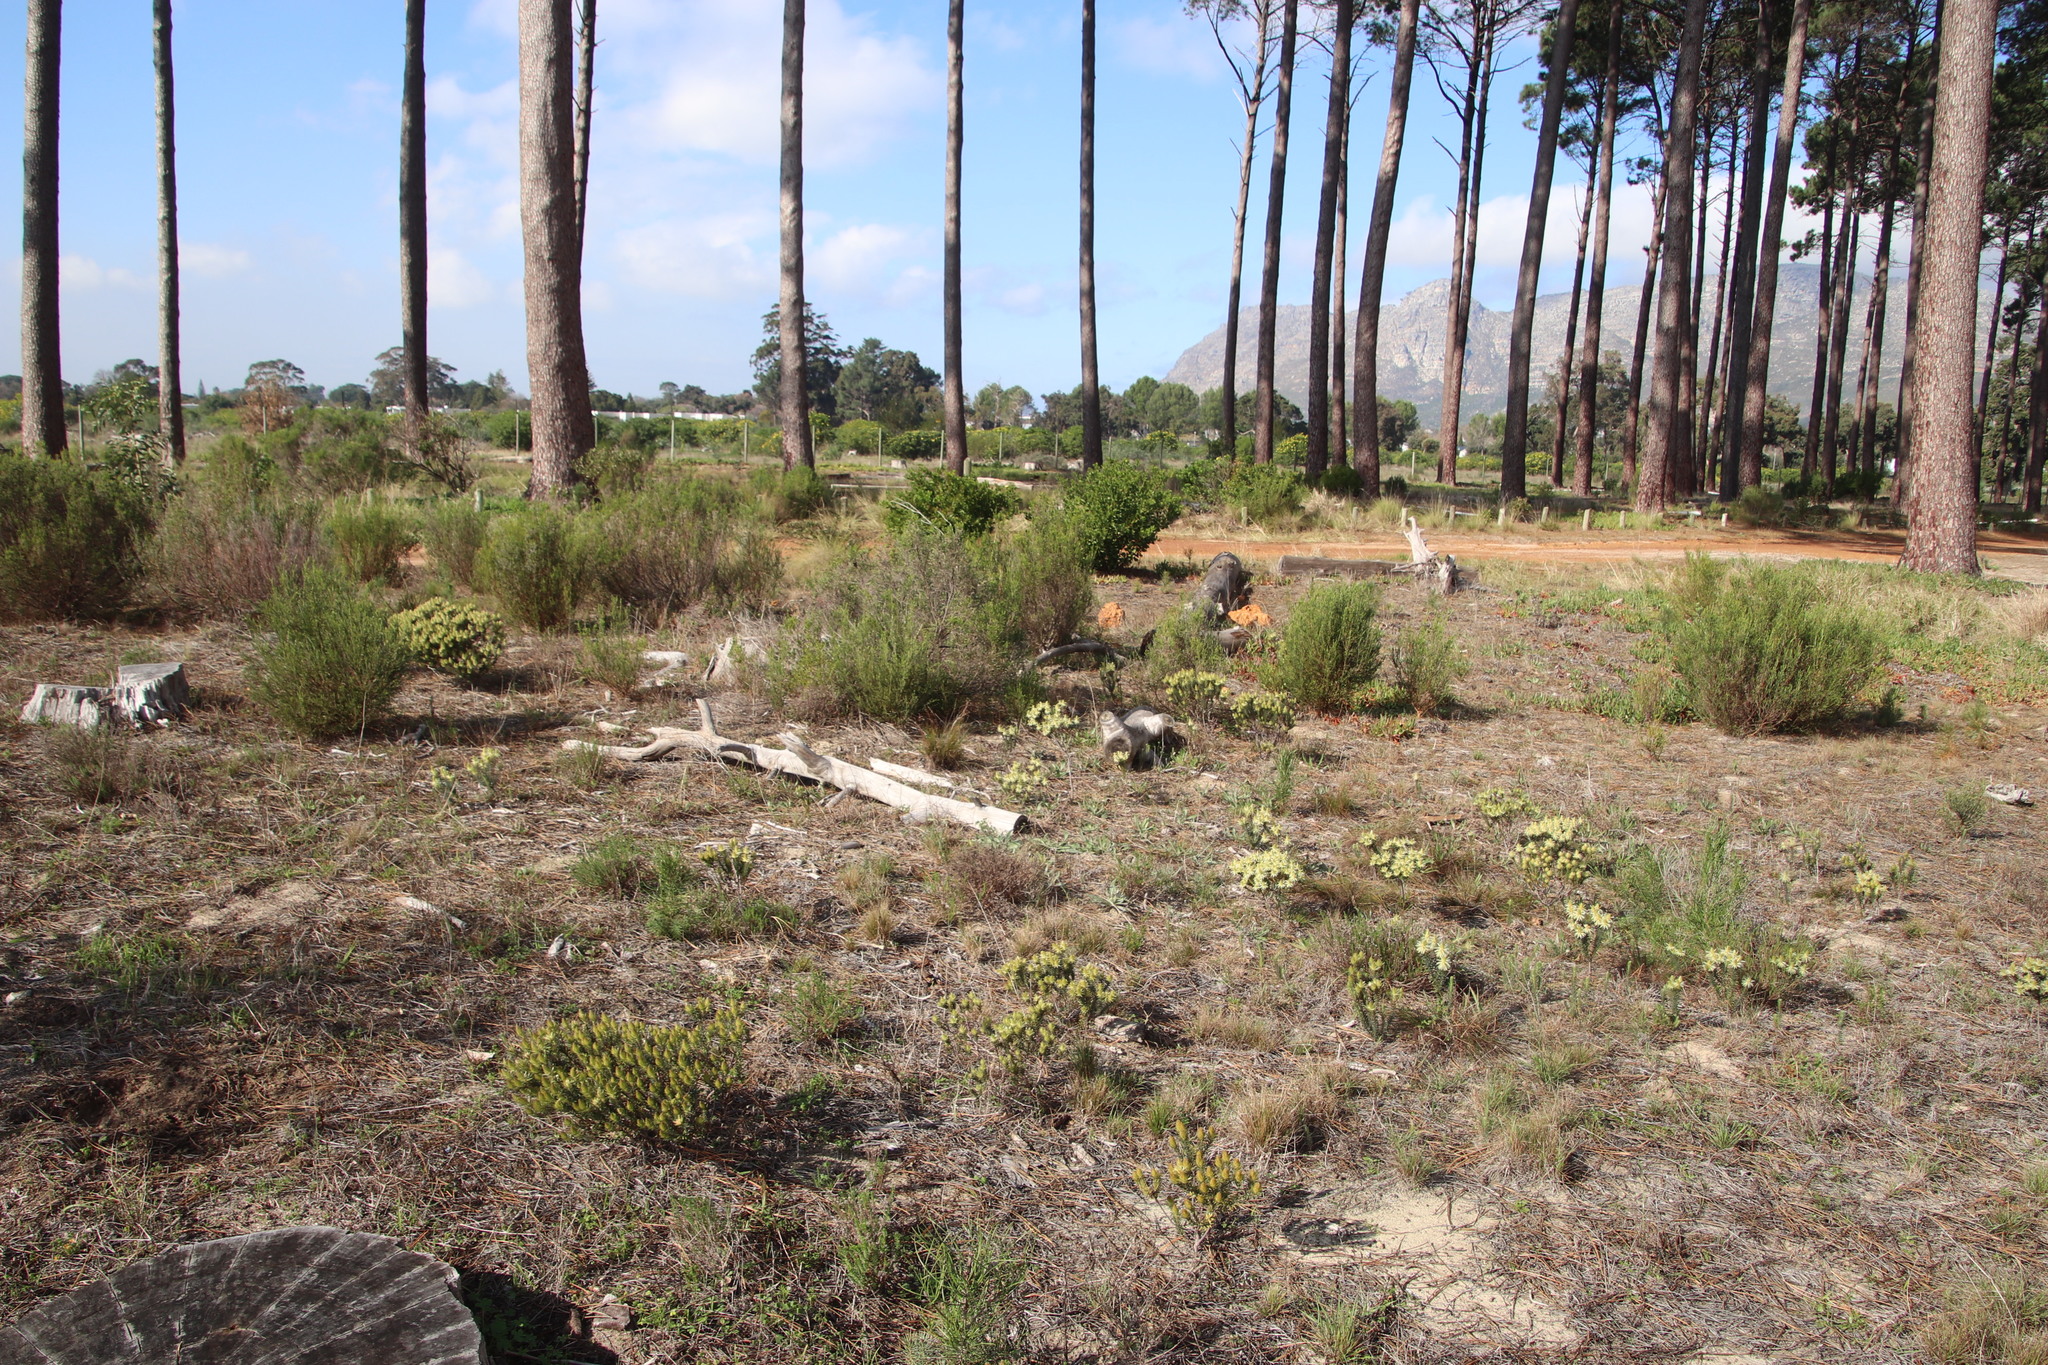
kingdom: Plantae
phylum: Tracheophyta
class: Magnoliopsida
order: Rosales
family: Rhamnaceae
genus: Phylica
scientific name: Phylica pubescens
